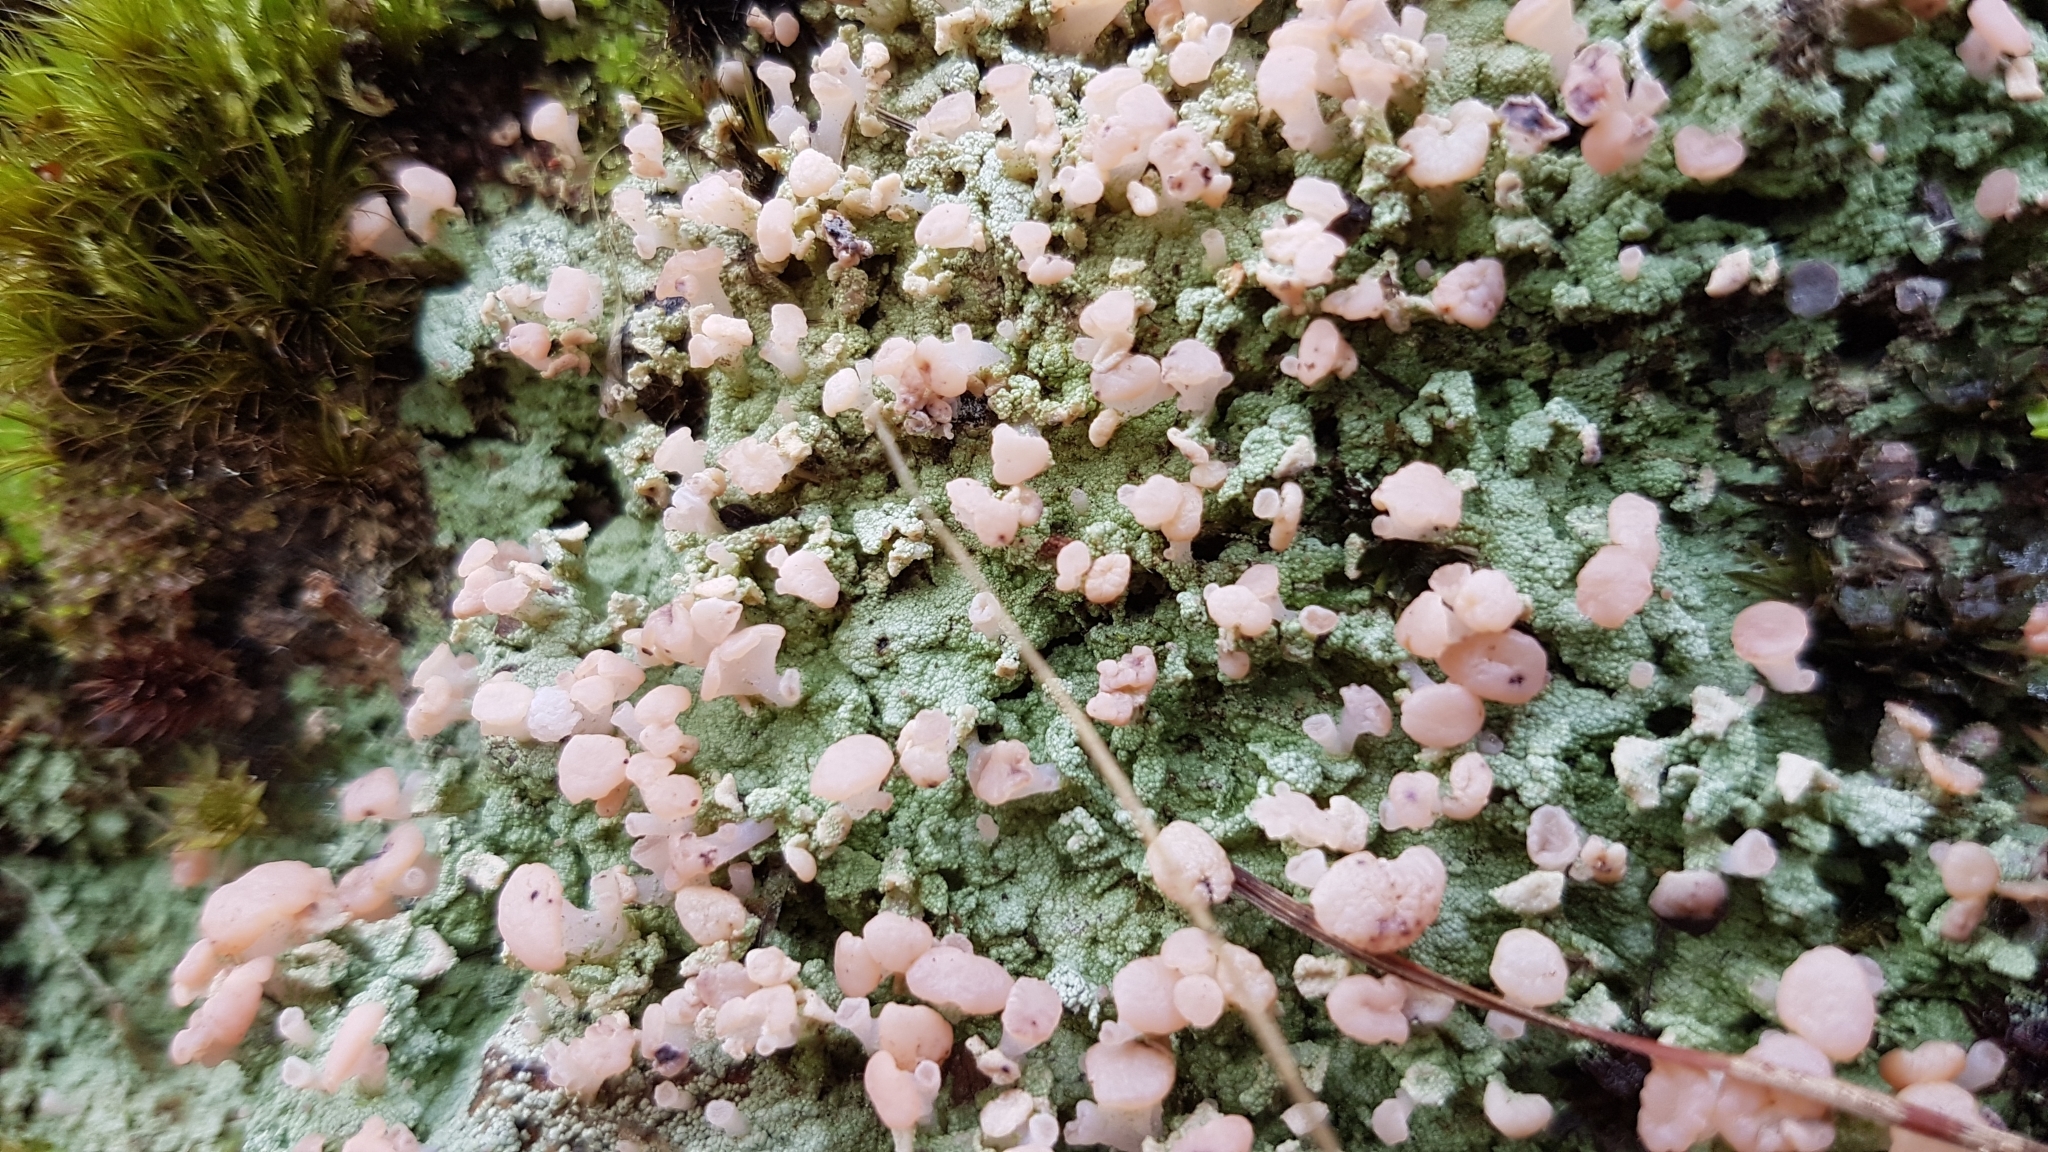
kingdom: Fungi
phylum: Ascomycota
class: Lecanoromycetes
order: Baeomycetales
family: Baeomycetaceae
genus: Baeomyces
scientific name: Baeomyces heteromorphus
